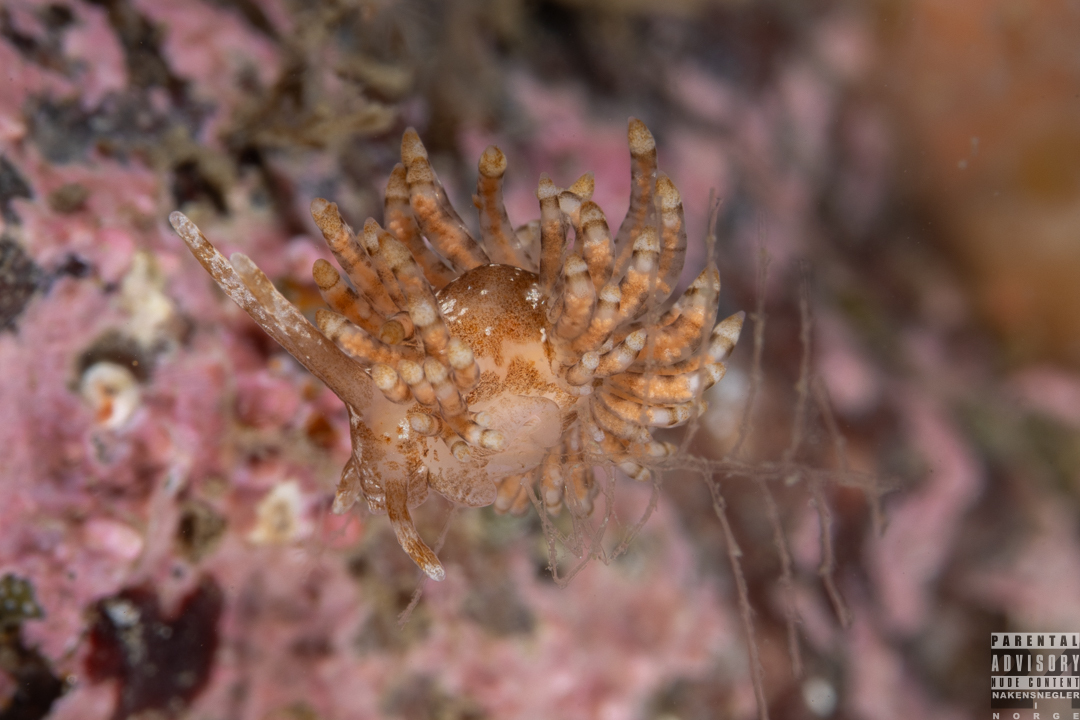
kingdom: Animalia
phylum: Mollusca
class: Gastropoda
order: Nudibranchia
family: Eubranchidae
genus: Eubranchus
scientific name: Eubranchus vittatus
